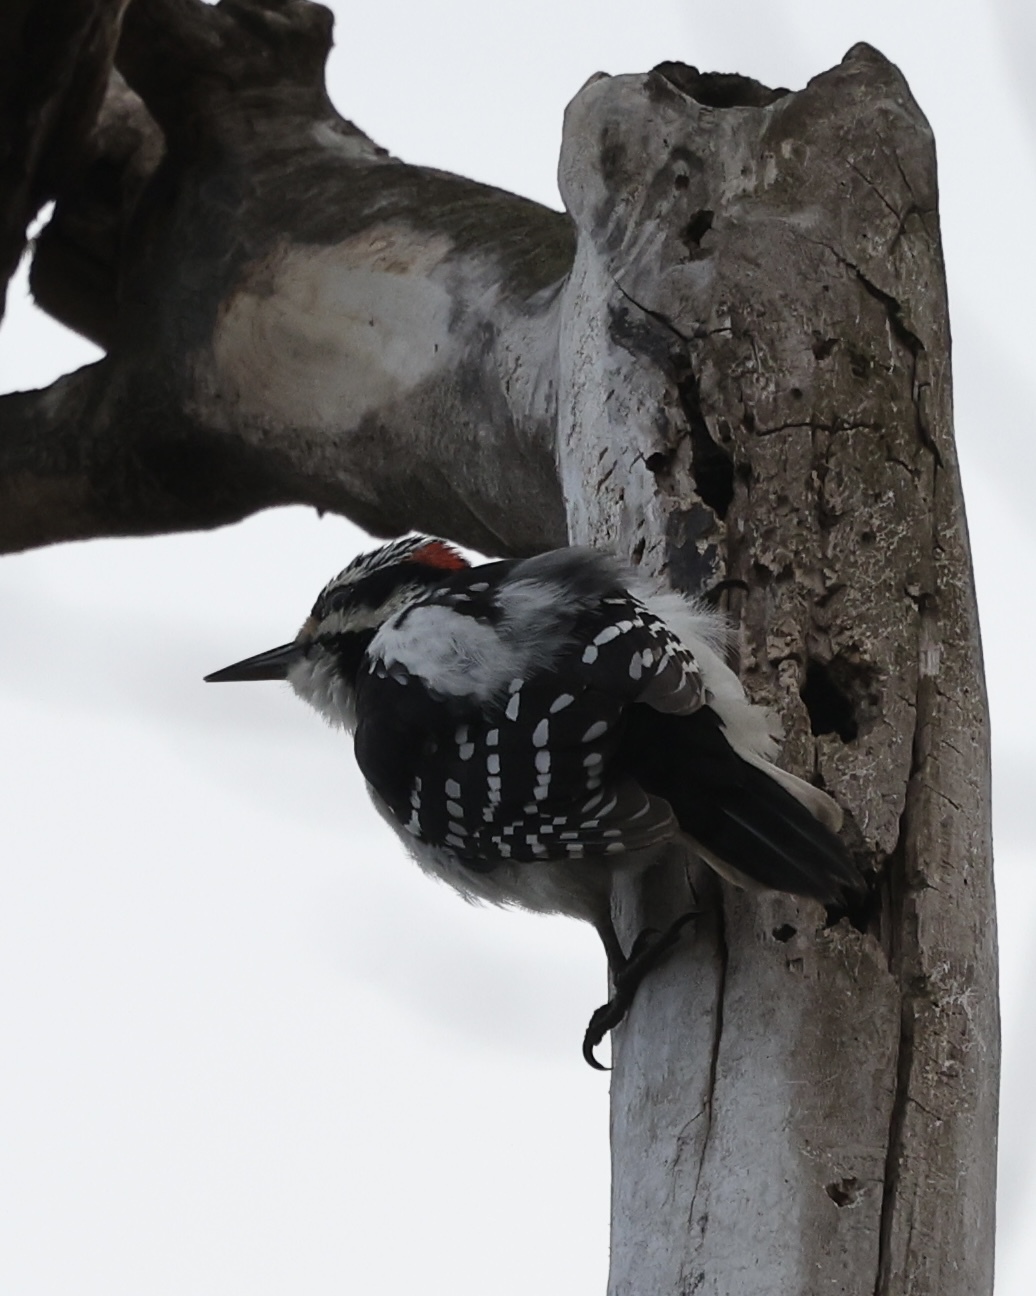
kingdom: Animalia
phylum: Chordata
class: Aves
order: Piciformes
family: Picidae
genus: Leuconotopicus
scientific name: Leuconotopicus villosus
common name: Hairy woodpecker
